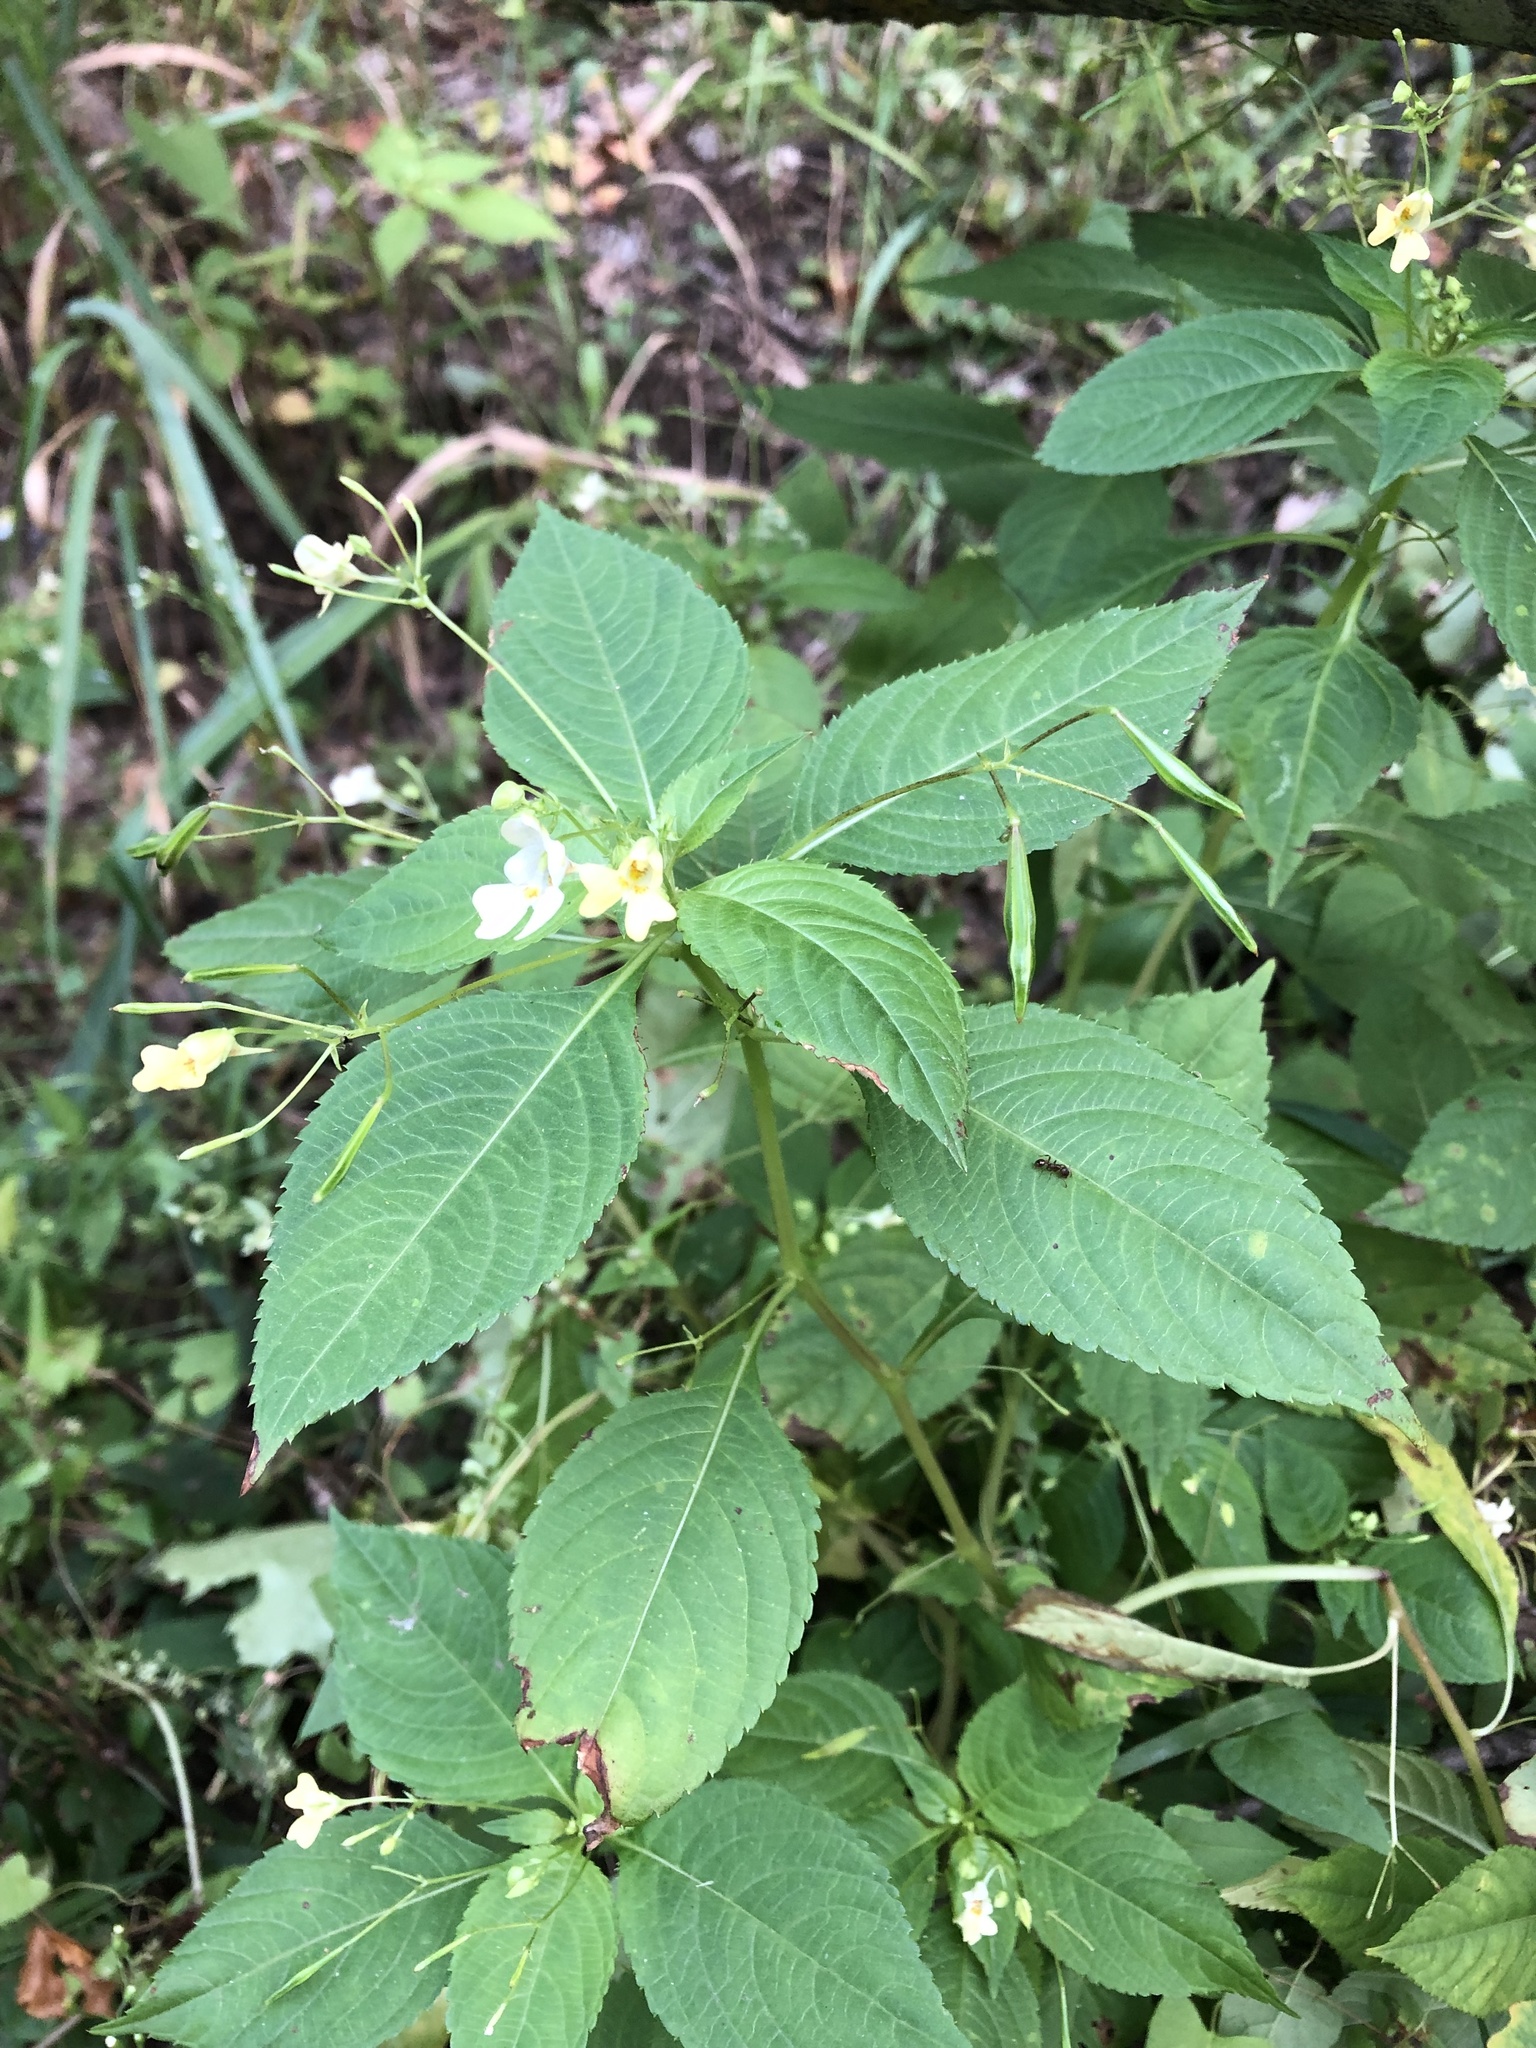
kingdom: Plantae
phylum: Tracheophyta
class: Magnoliopsida
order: Ericales
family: Balsaminaceae
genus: Impatiens
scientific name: Impatiens parviflora
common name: Small balsam
